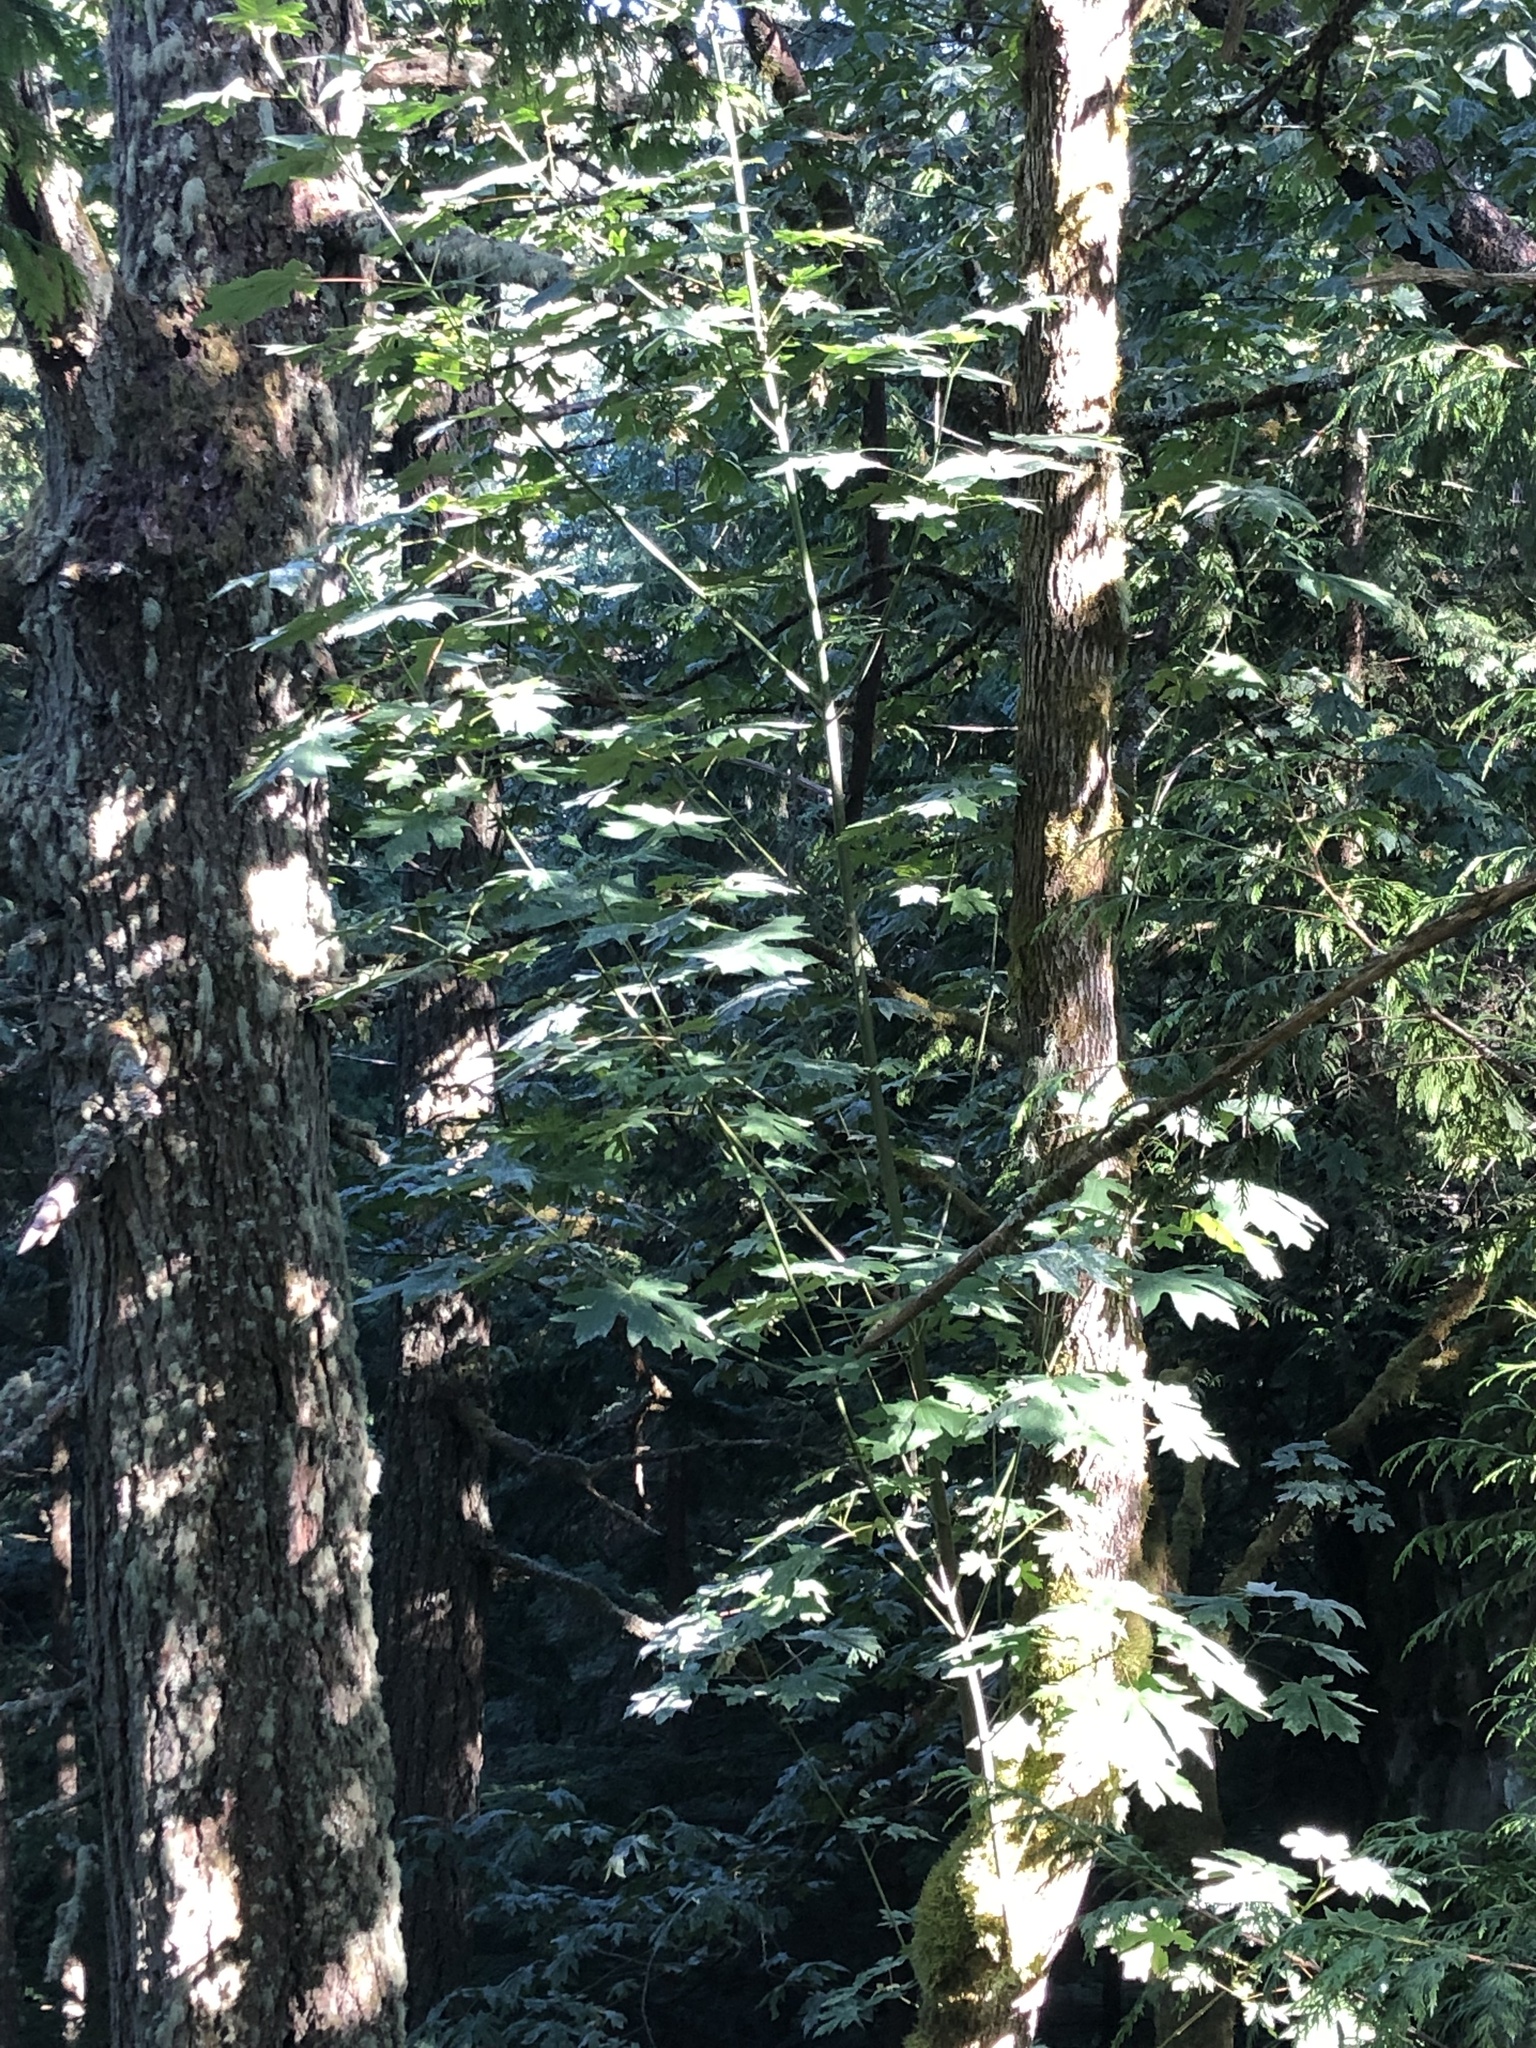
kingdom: Plantae
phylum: Tracheophyta
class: Magnoliopsida
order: Sapindales
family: Sapindaceae
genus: Acer
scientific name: Acer macrophyllum
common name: Oregon maple
